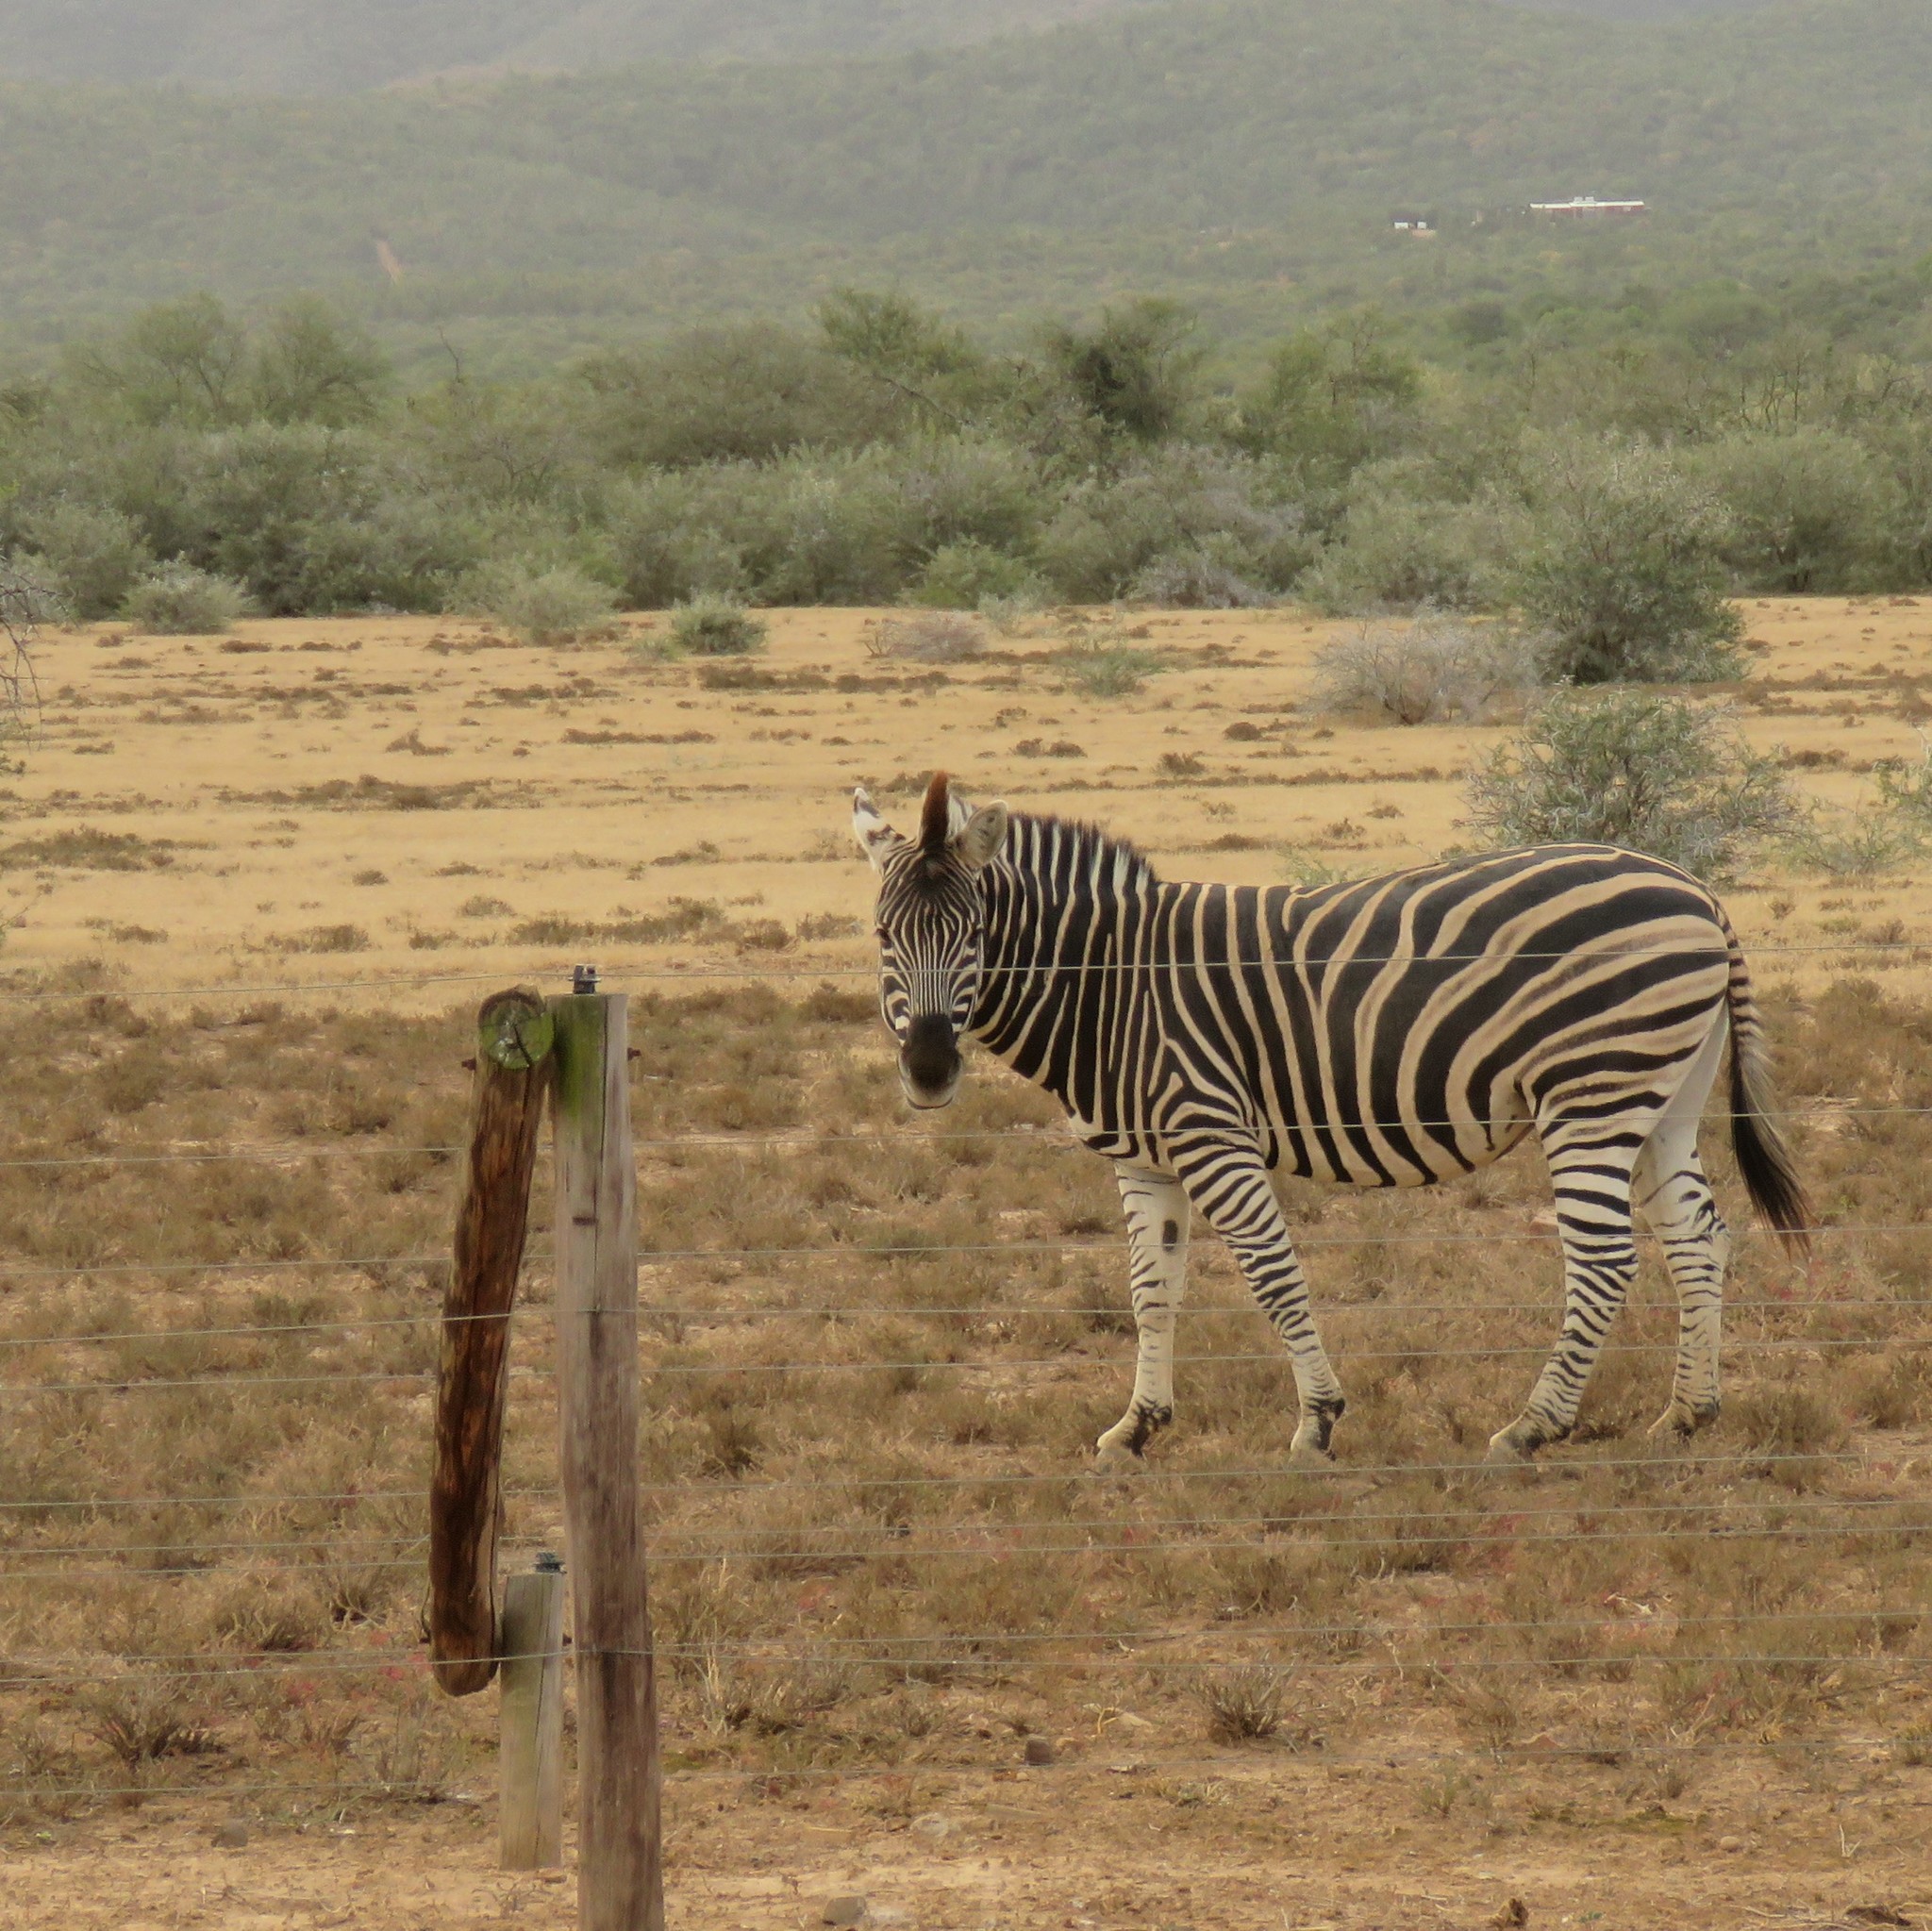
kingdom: Animalia
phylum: Chordata
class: Mammalia
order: Perissodactyla
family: Equidae
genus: Equus
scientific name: Equus quagga
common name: Plains zebra
